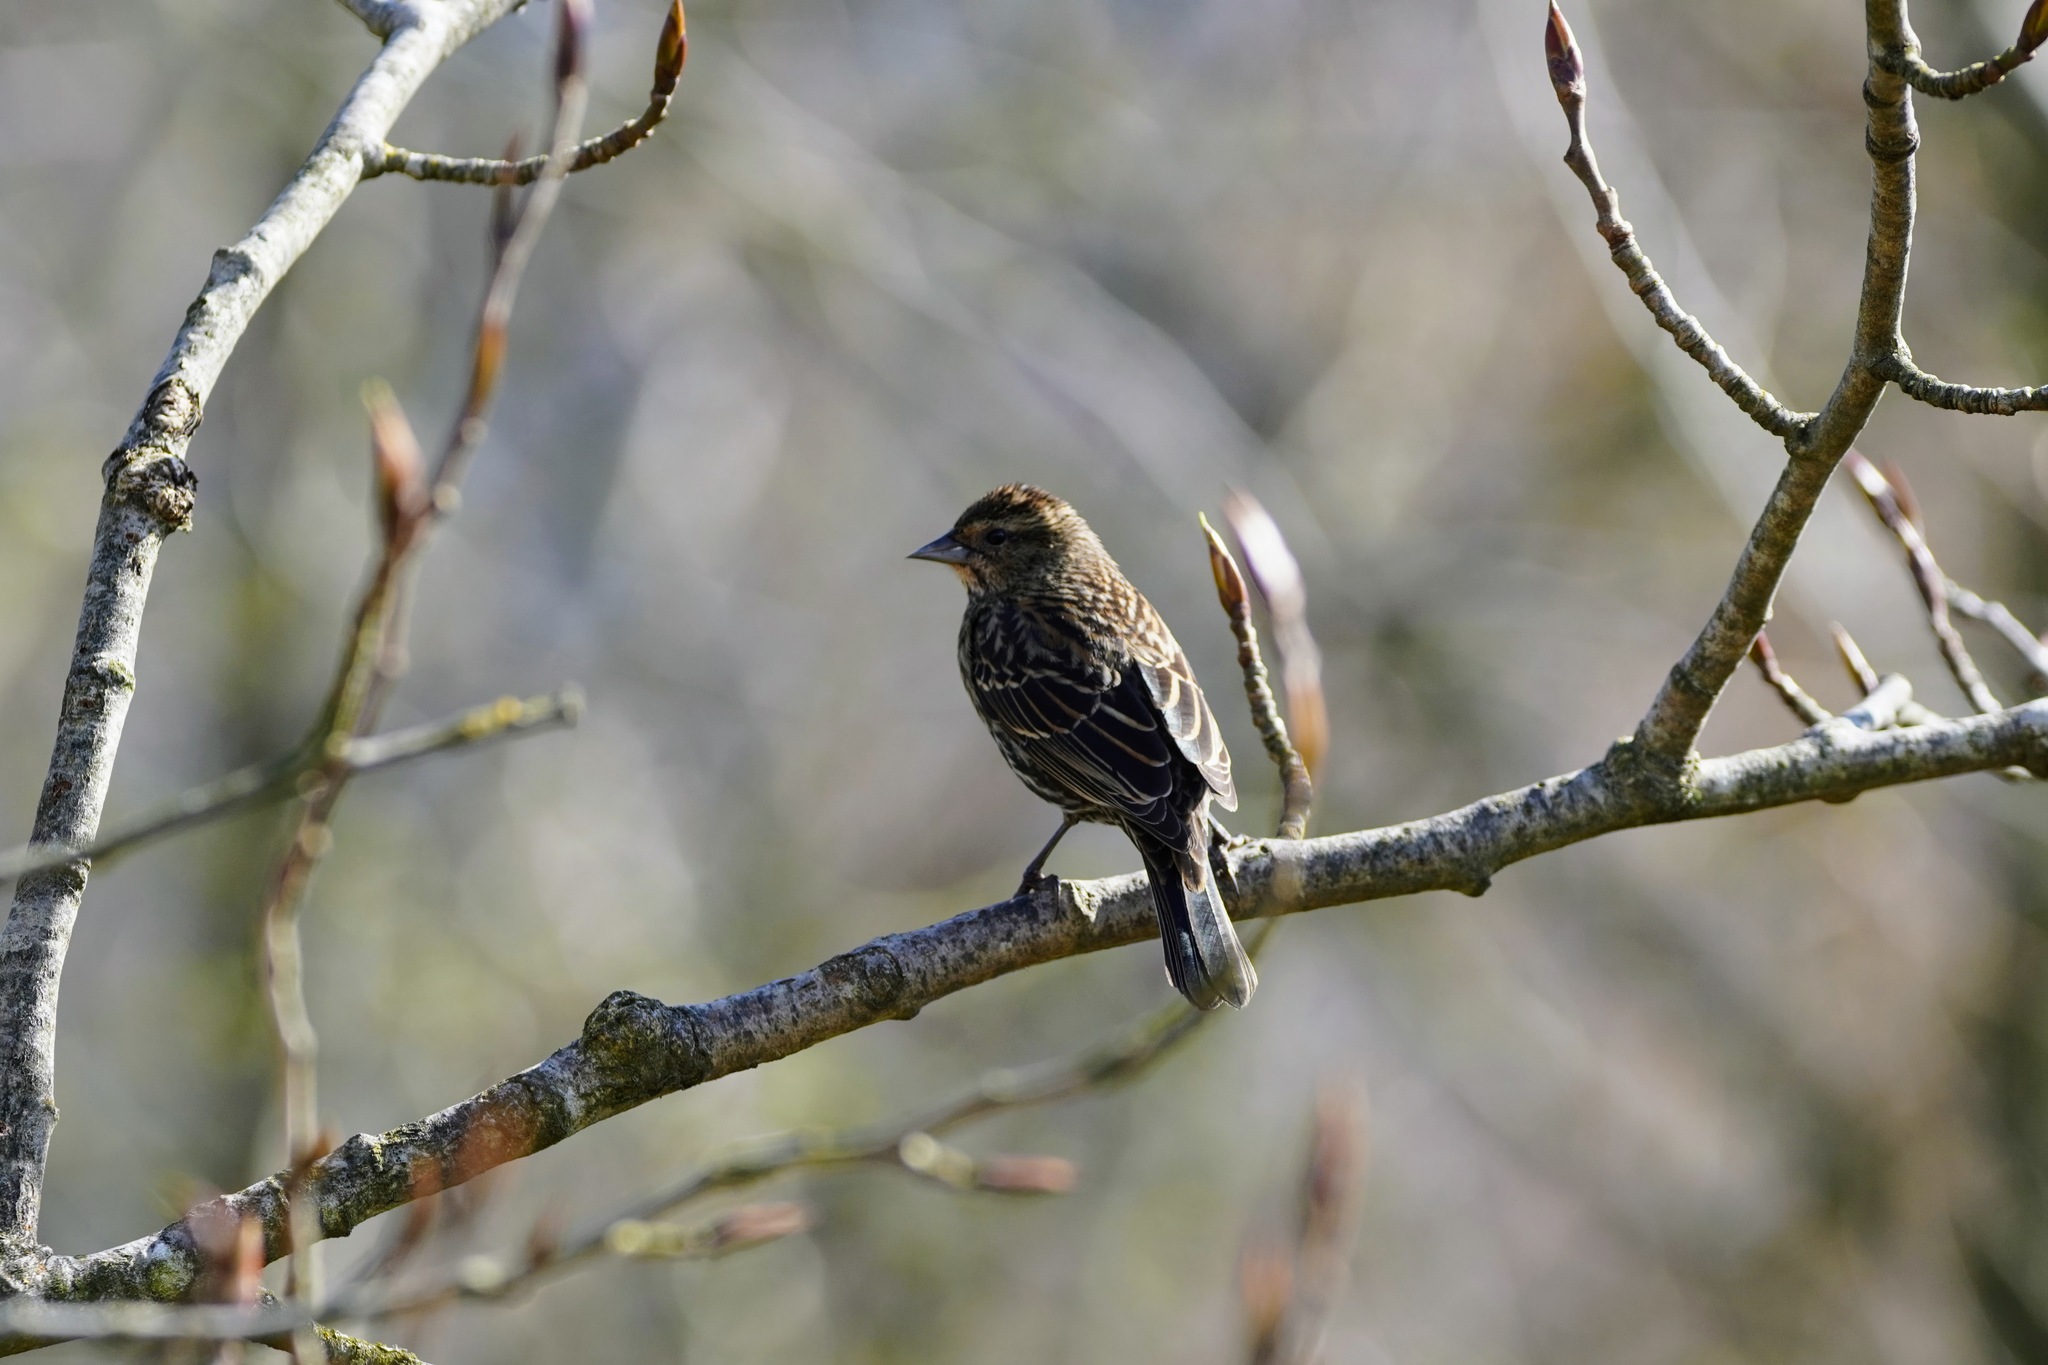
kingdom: Animalia
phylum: Chordata
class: Aves
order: Passeriformes
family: Icteridae
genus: Agelaius
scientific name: Agelaius phoeniceus
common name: Red-winged blackbird
